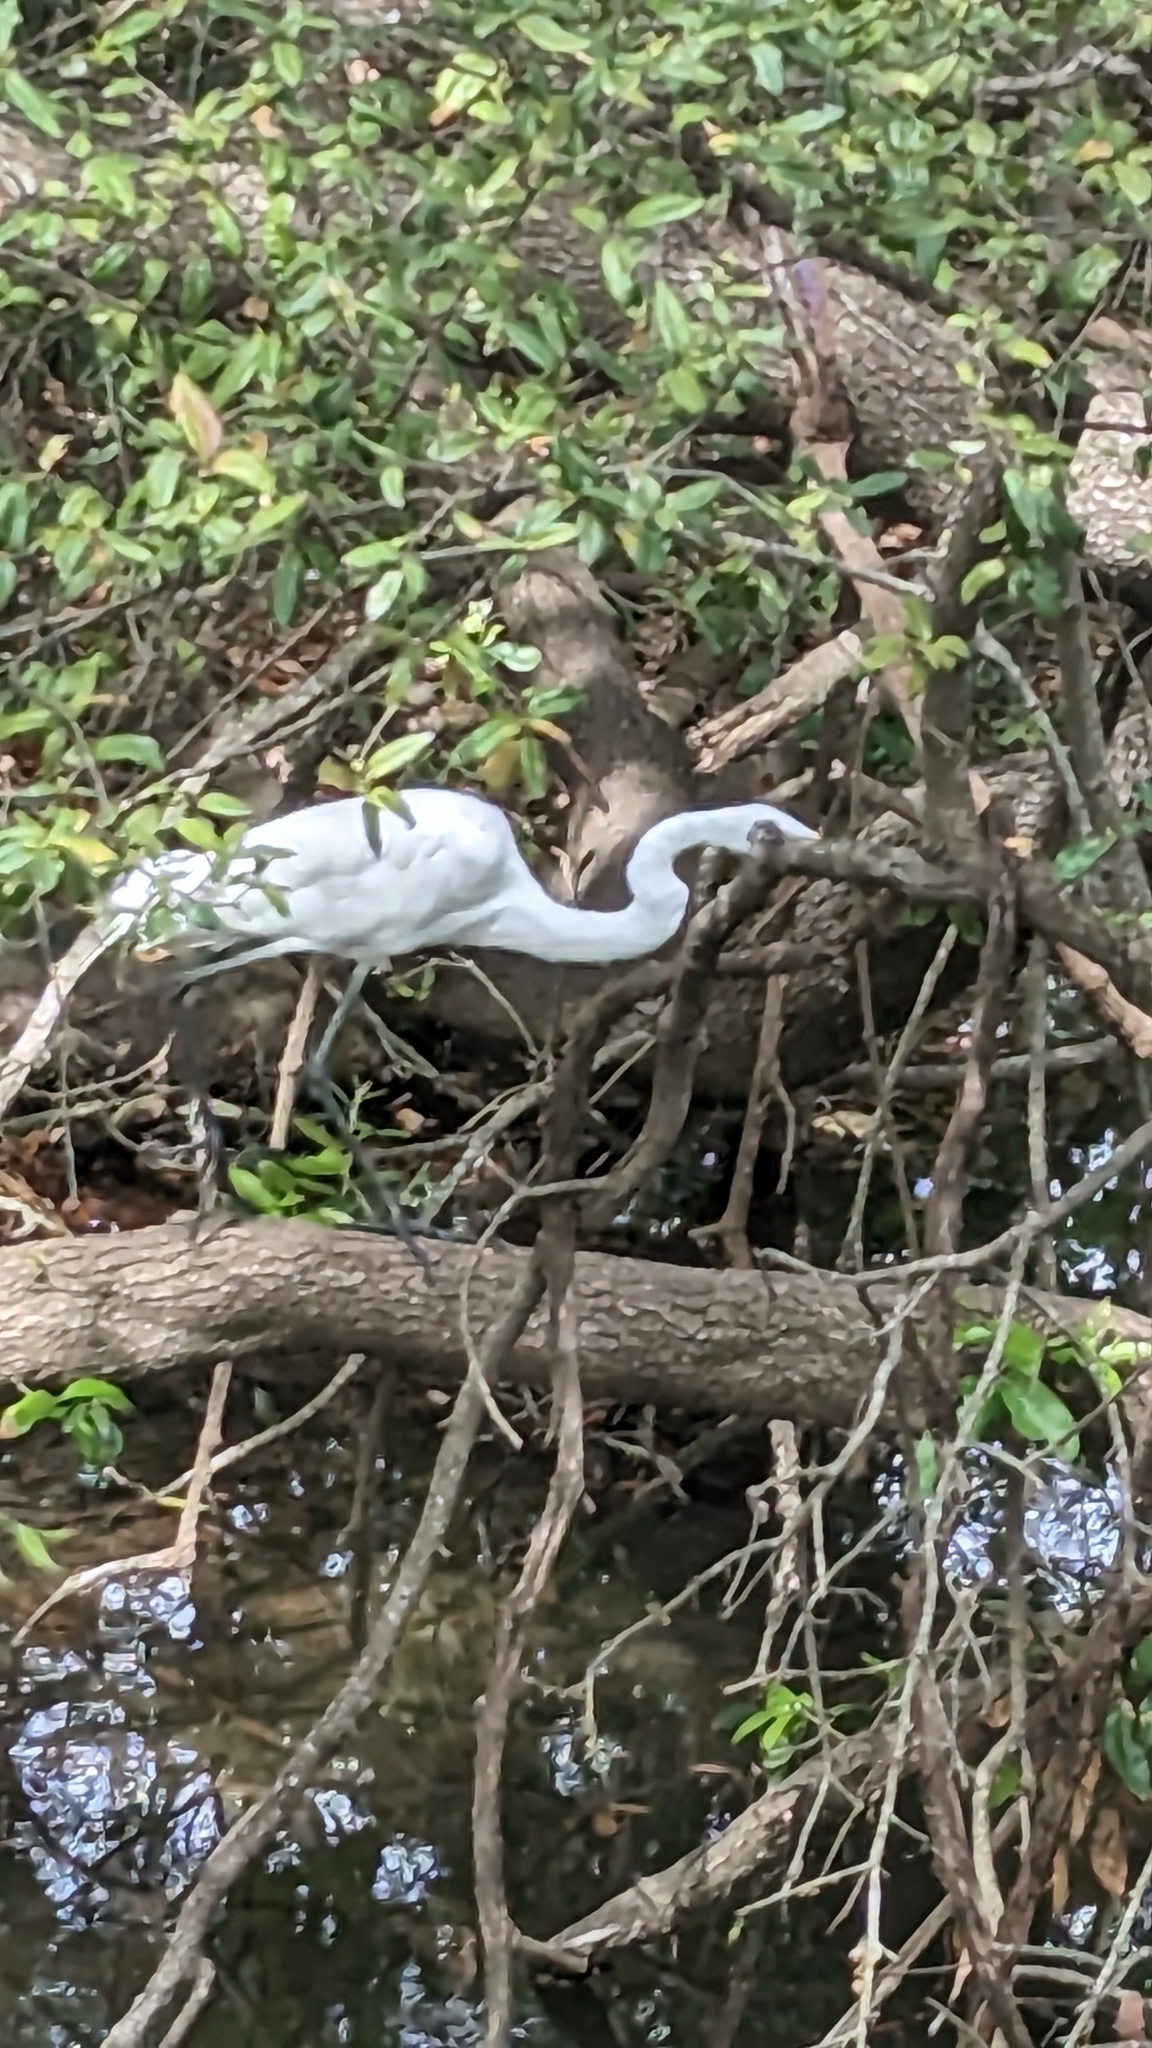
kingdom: Animalia
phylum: Chordata
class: Aves
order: Pelecaniformes
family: Ardeidae
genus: Ardea
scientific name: Ardea alba
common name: Great egret
